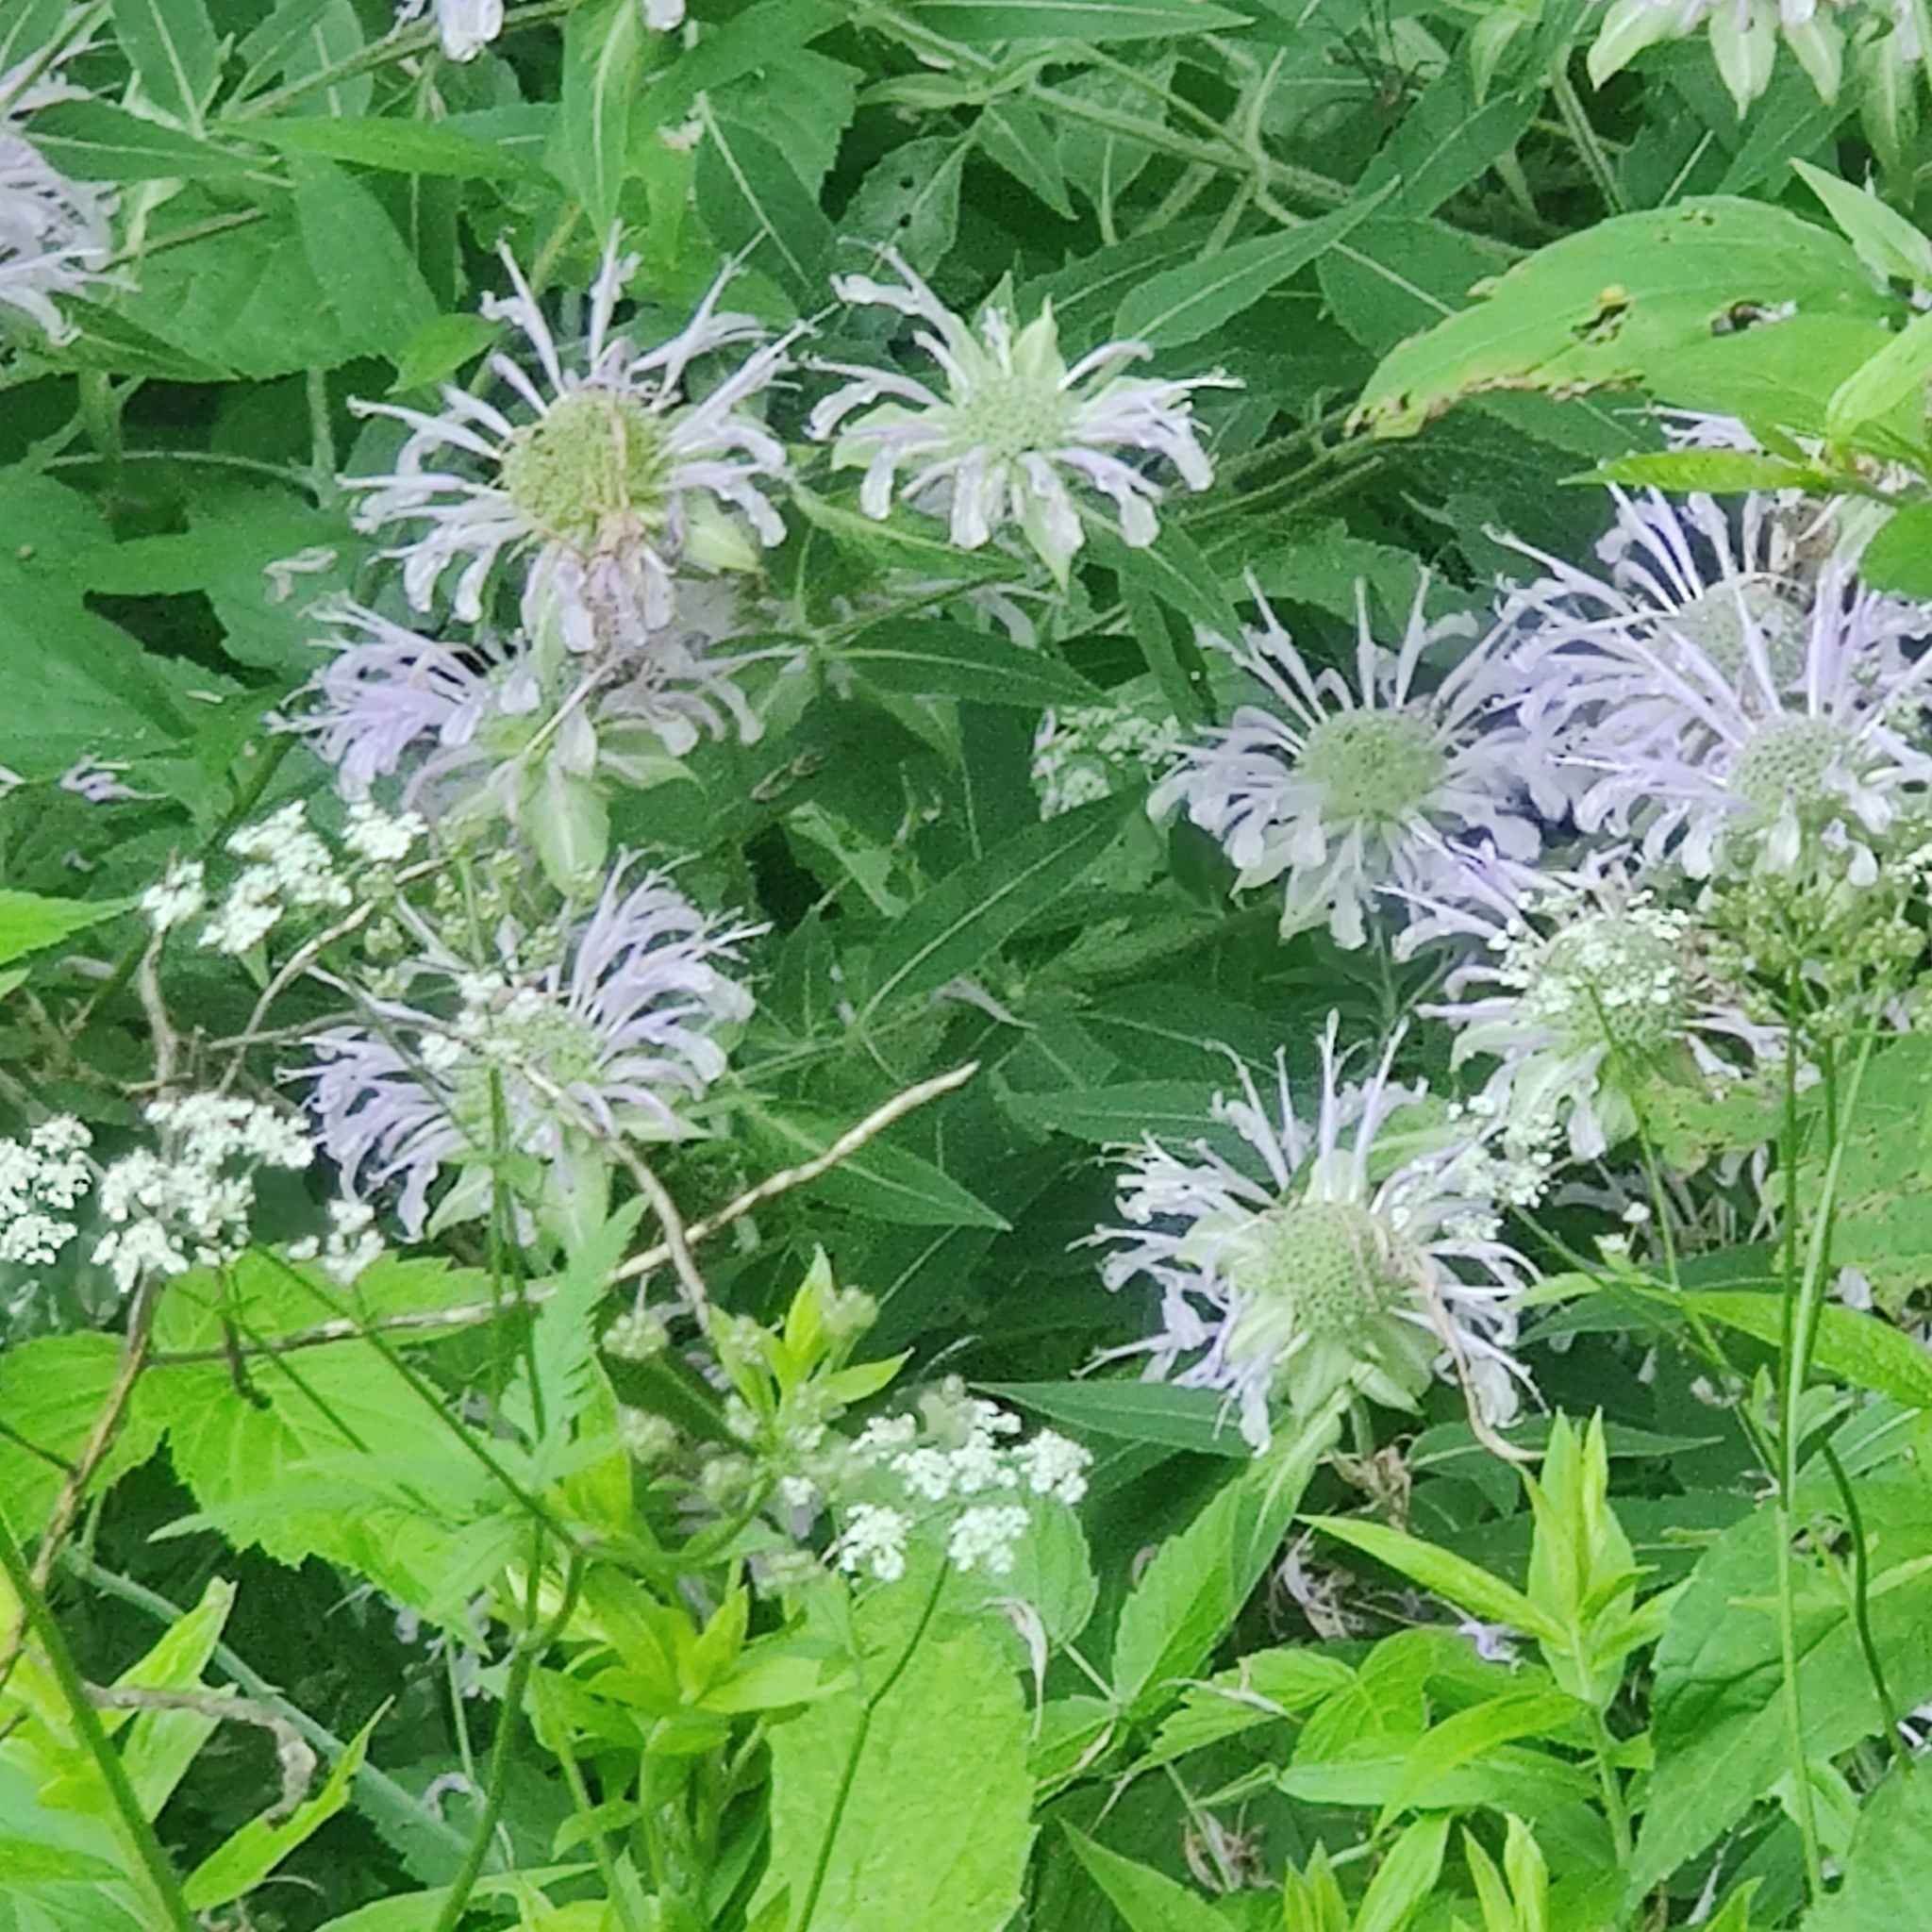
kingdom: Plantae
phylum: Tracheophyta
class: Magnoliopsida
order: Lamiales
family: Lamiaceae
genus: Monarda
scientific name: Monarda fistulosa
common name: Purple beebalm
